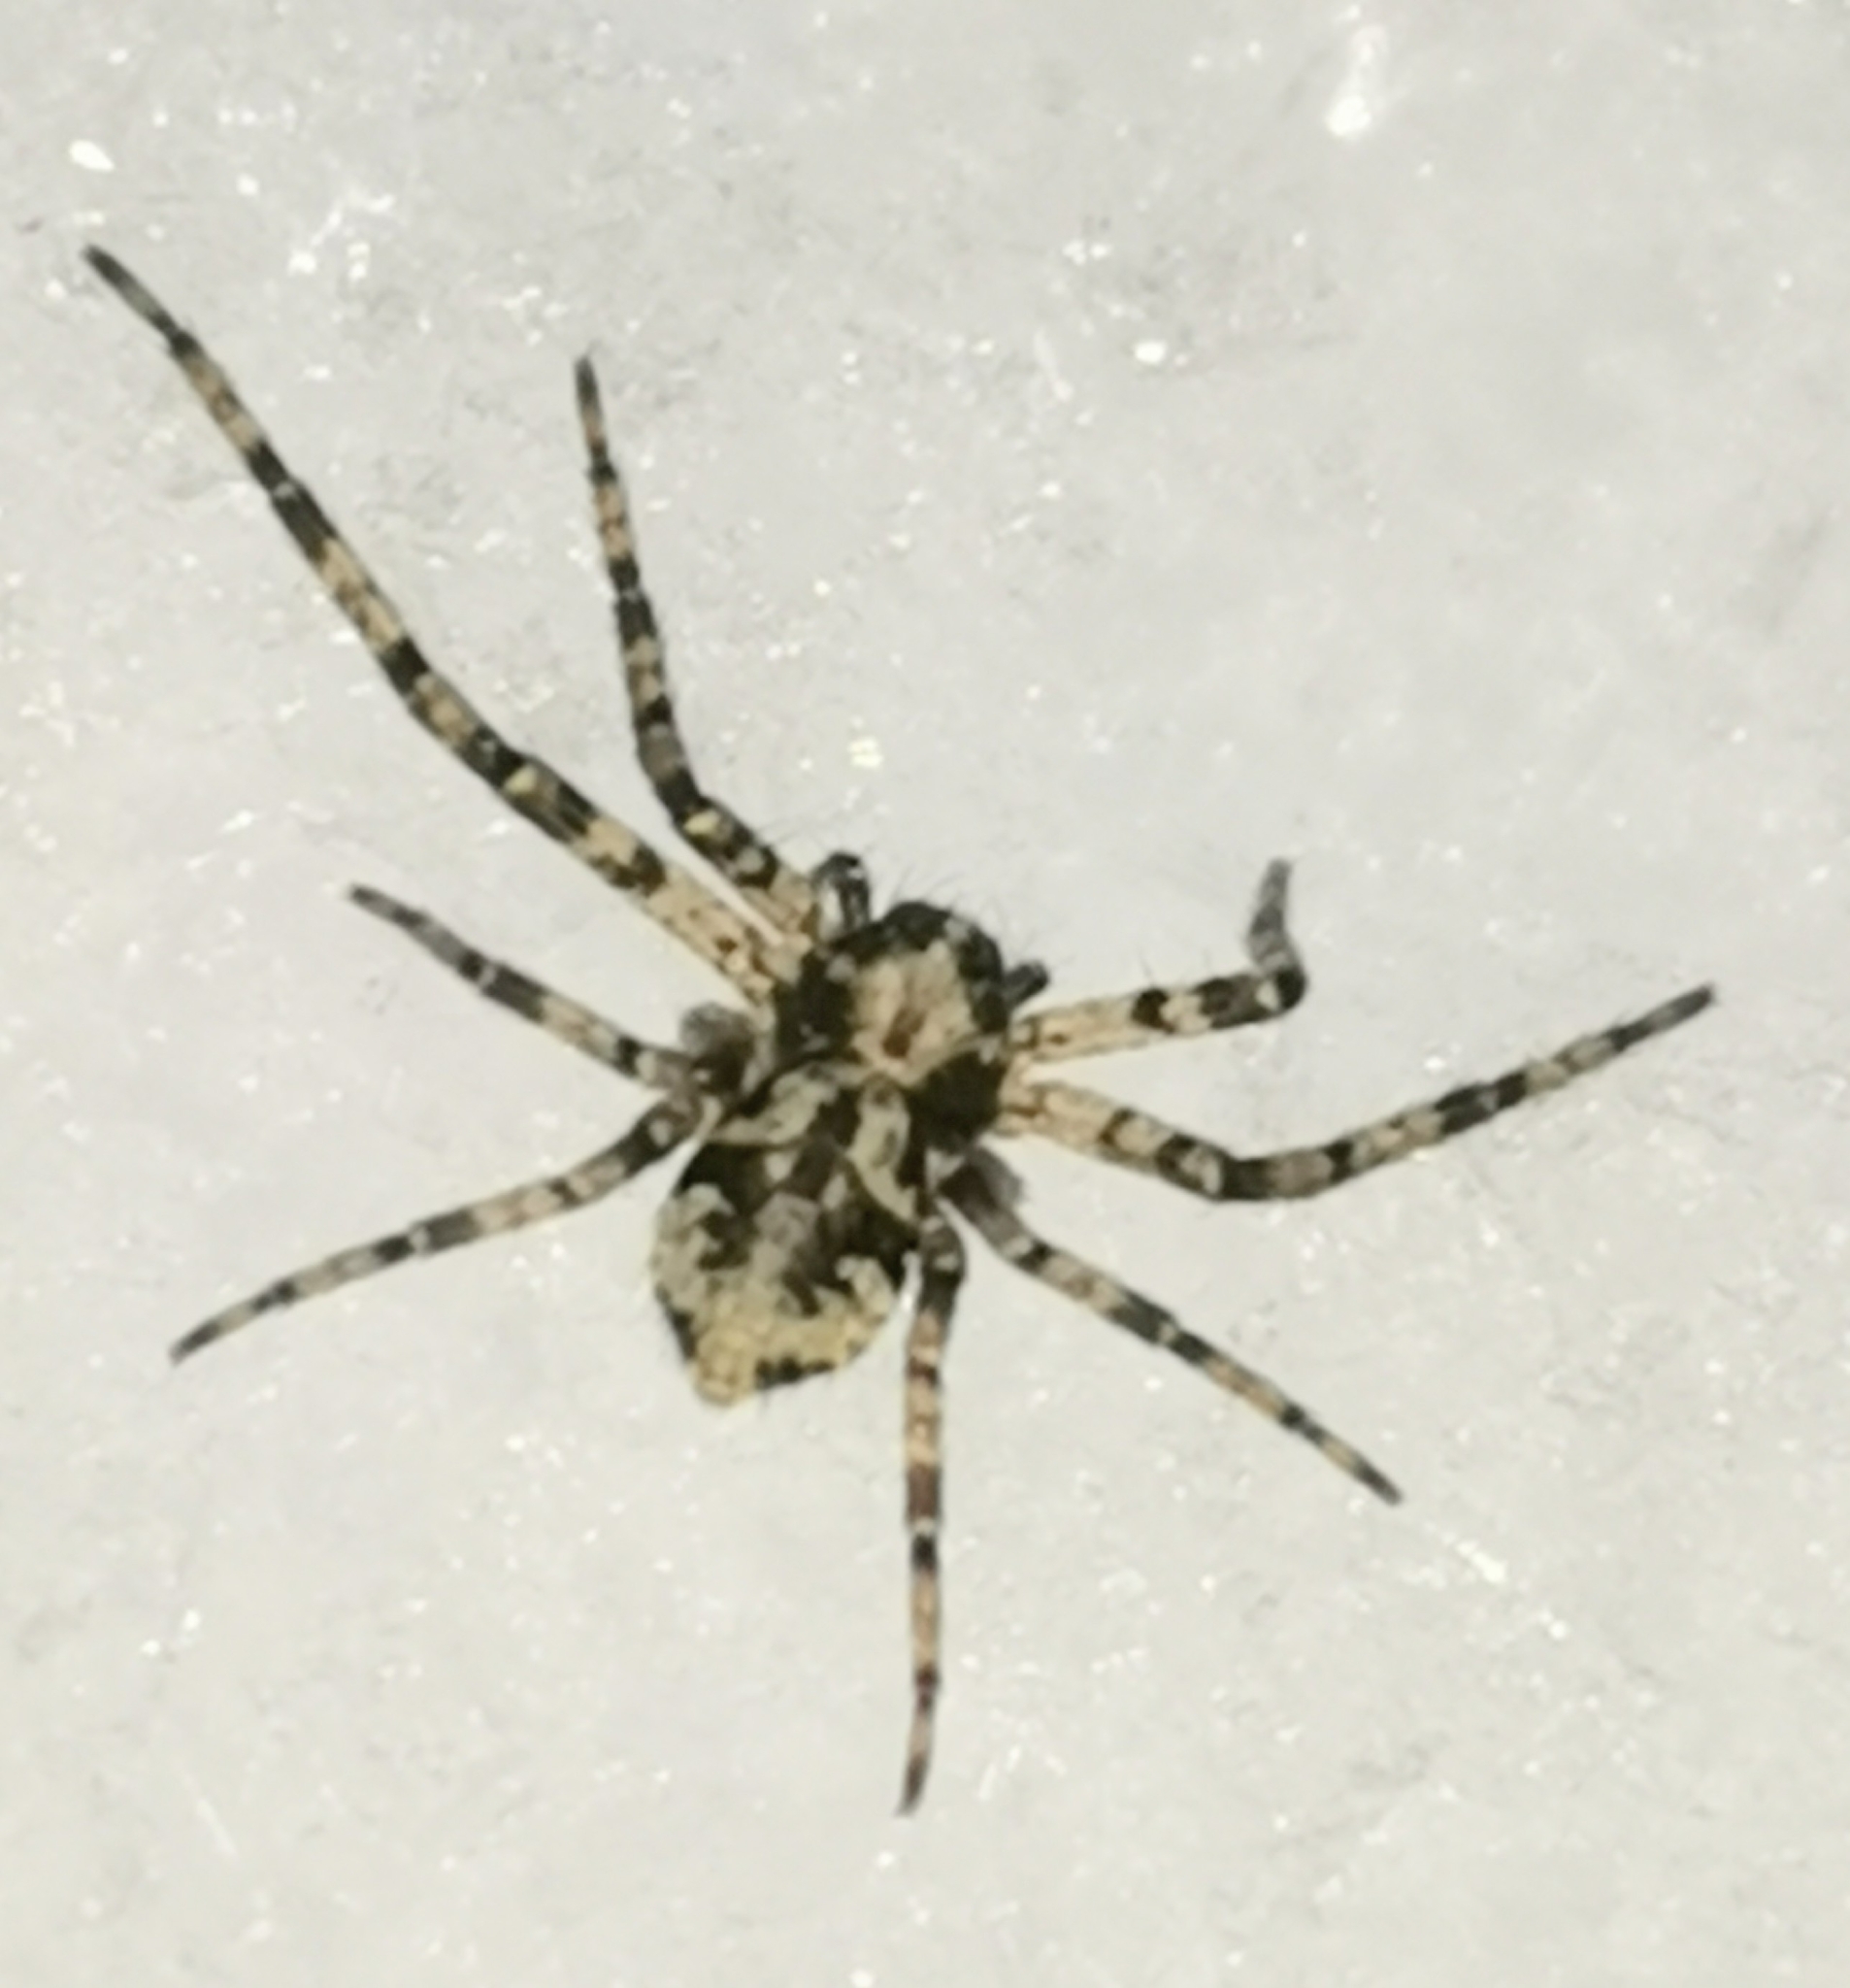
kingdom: Animalia
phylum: Arthropoda
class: Arachnida
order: Araneae
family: Philodromidae
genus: Philodromus
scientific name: Philodromus margaritatus
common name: Lichen running-spider
